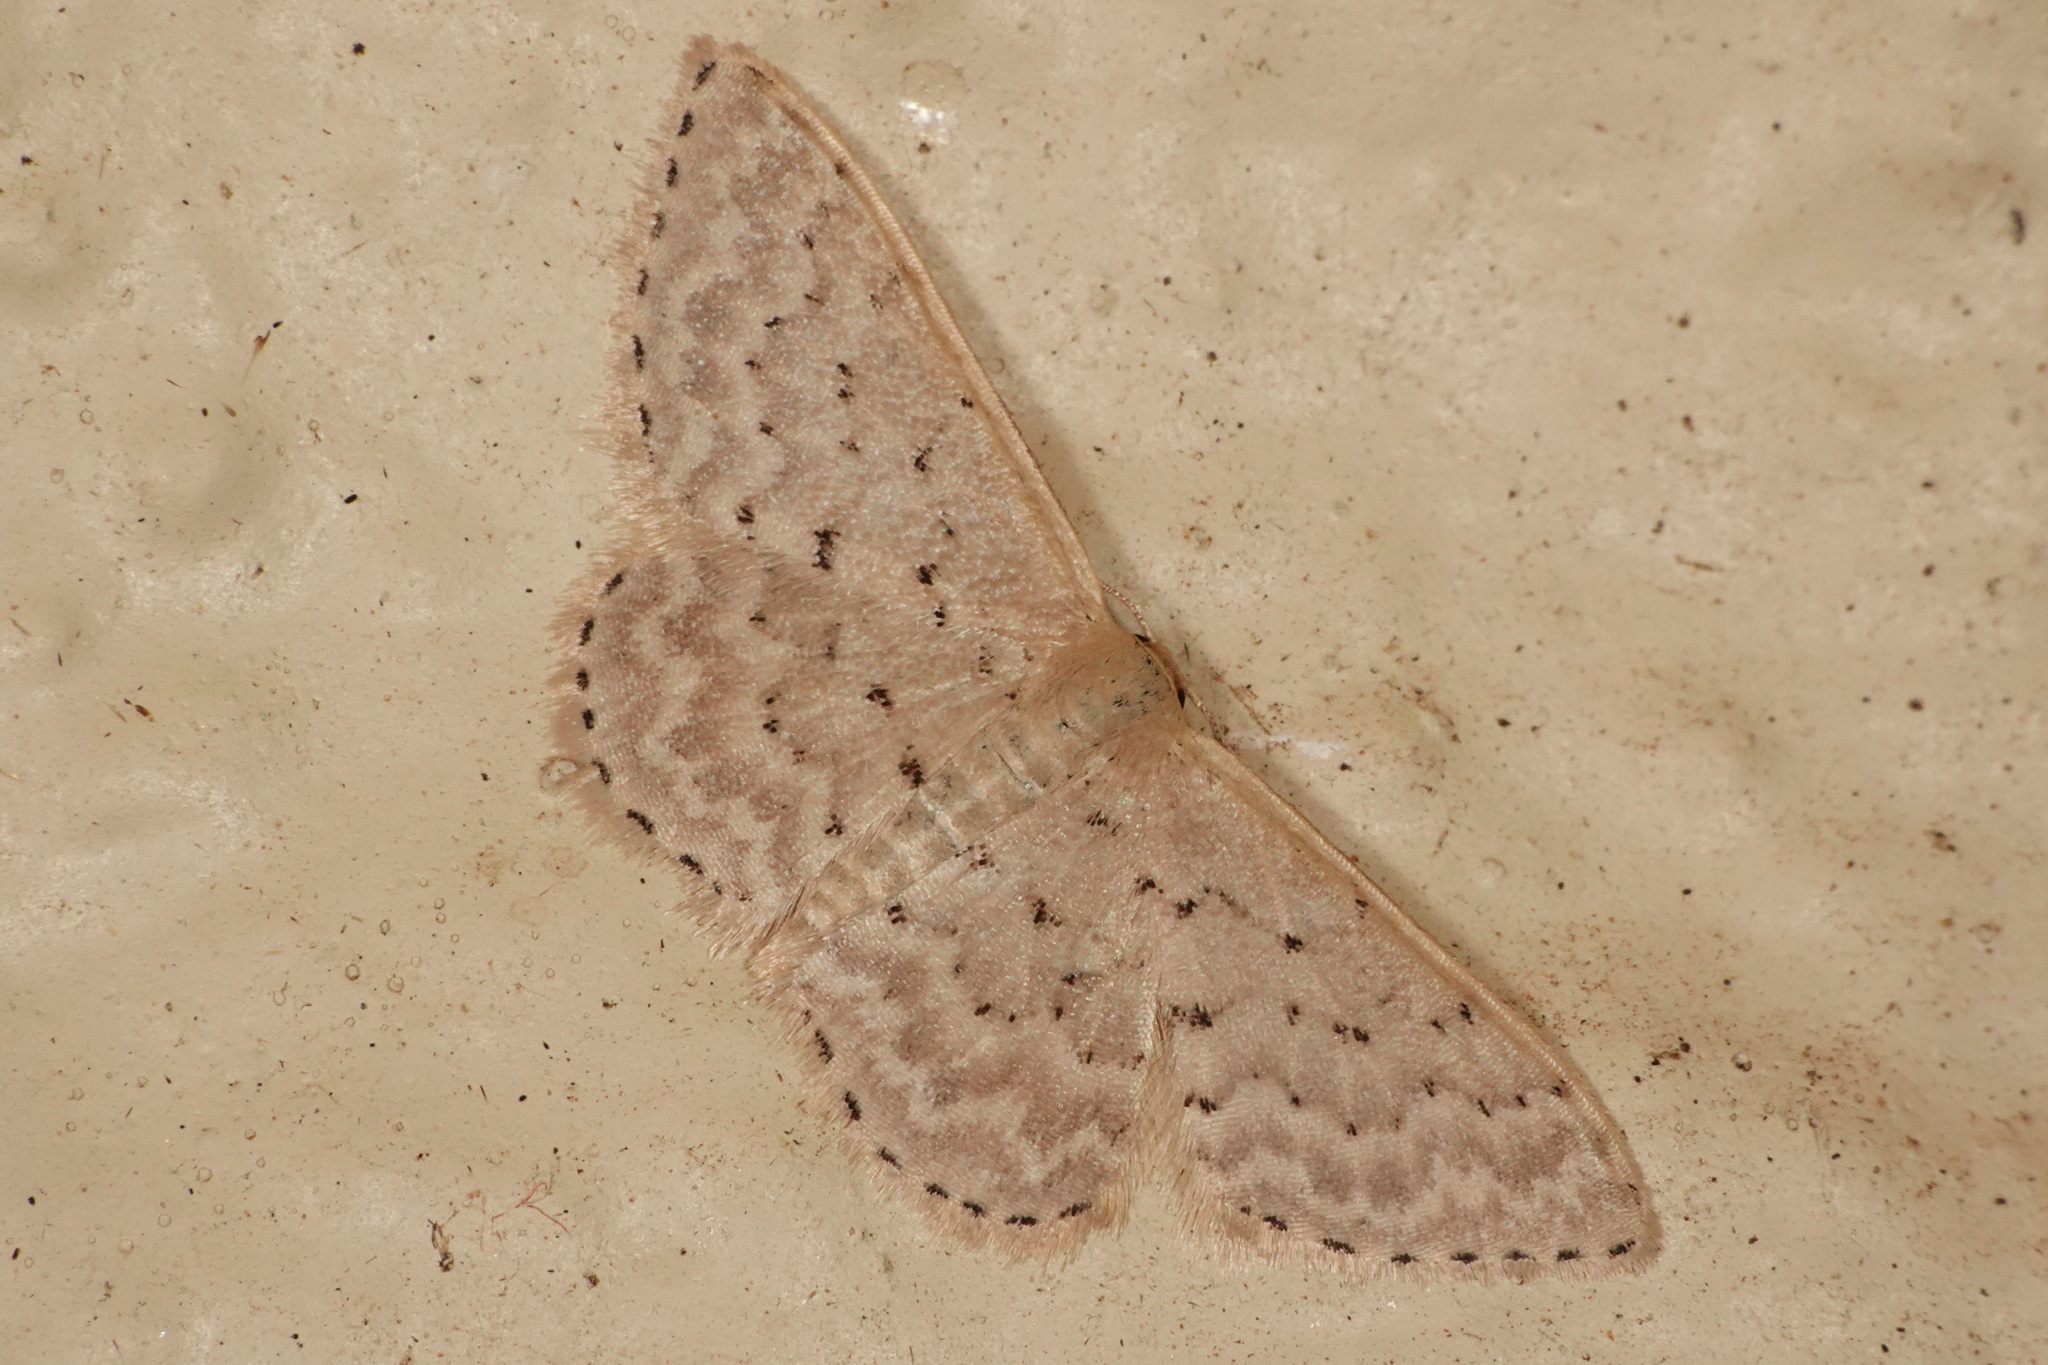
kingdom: Animalia
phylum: Arthropoda
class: Insecta
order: Lepidoptera
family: Geometridae
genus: Idaea
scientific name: Idaea philocosma
